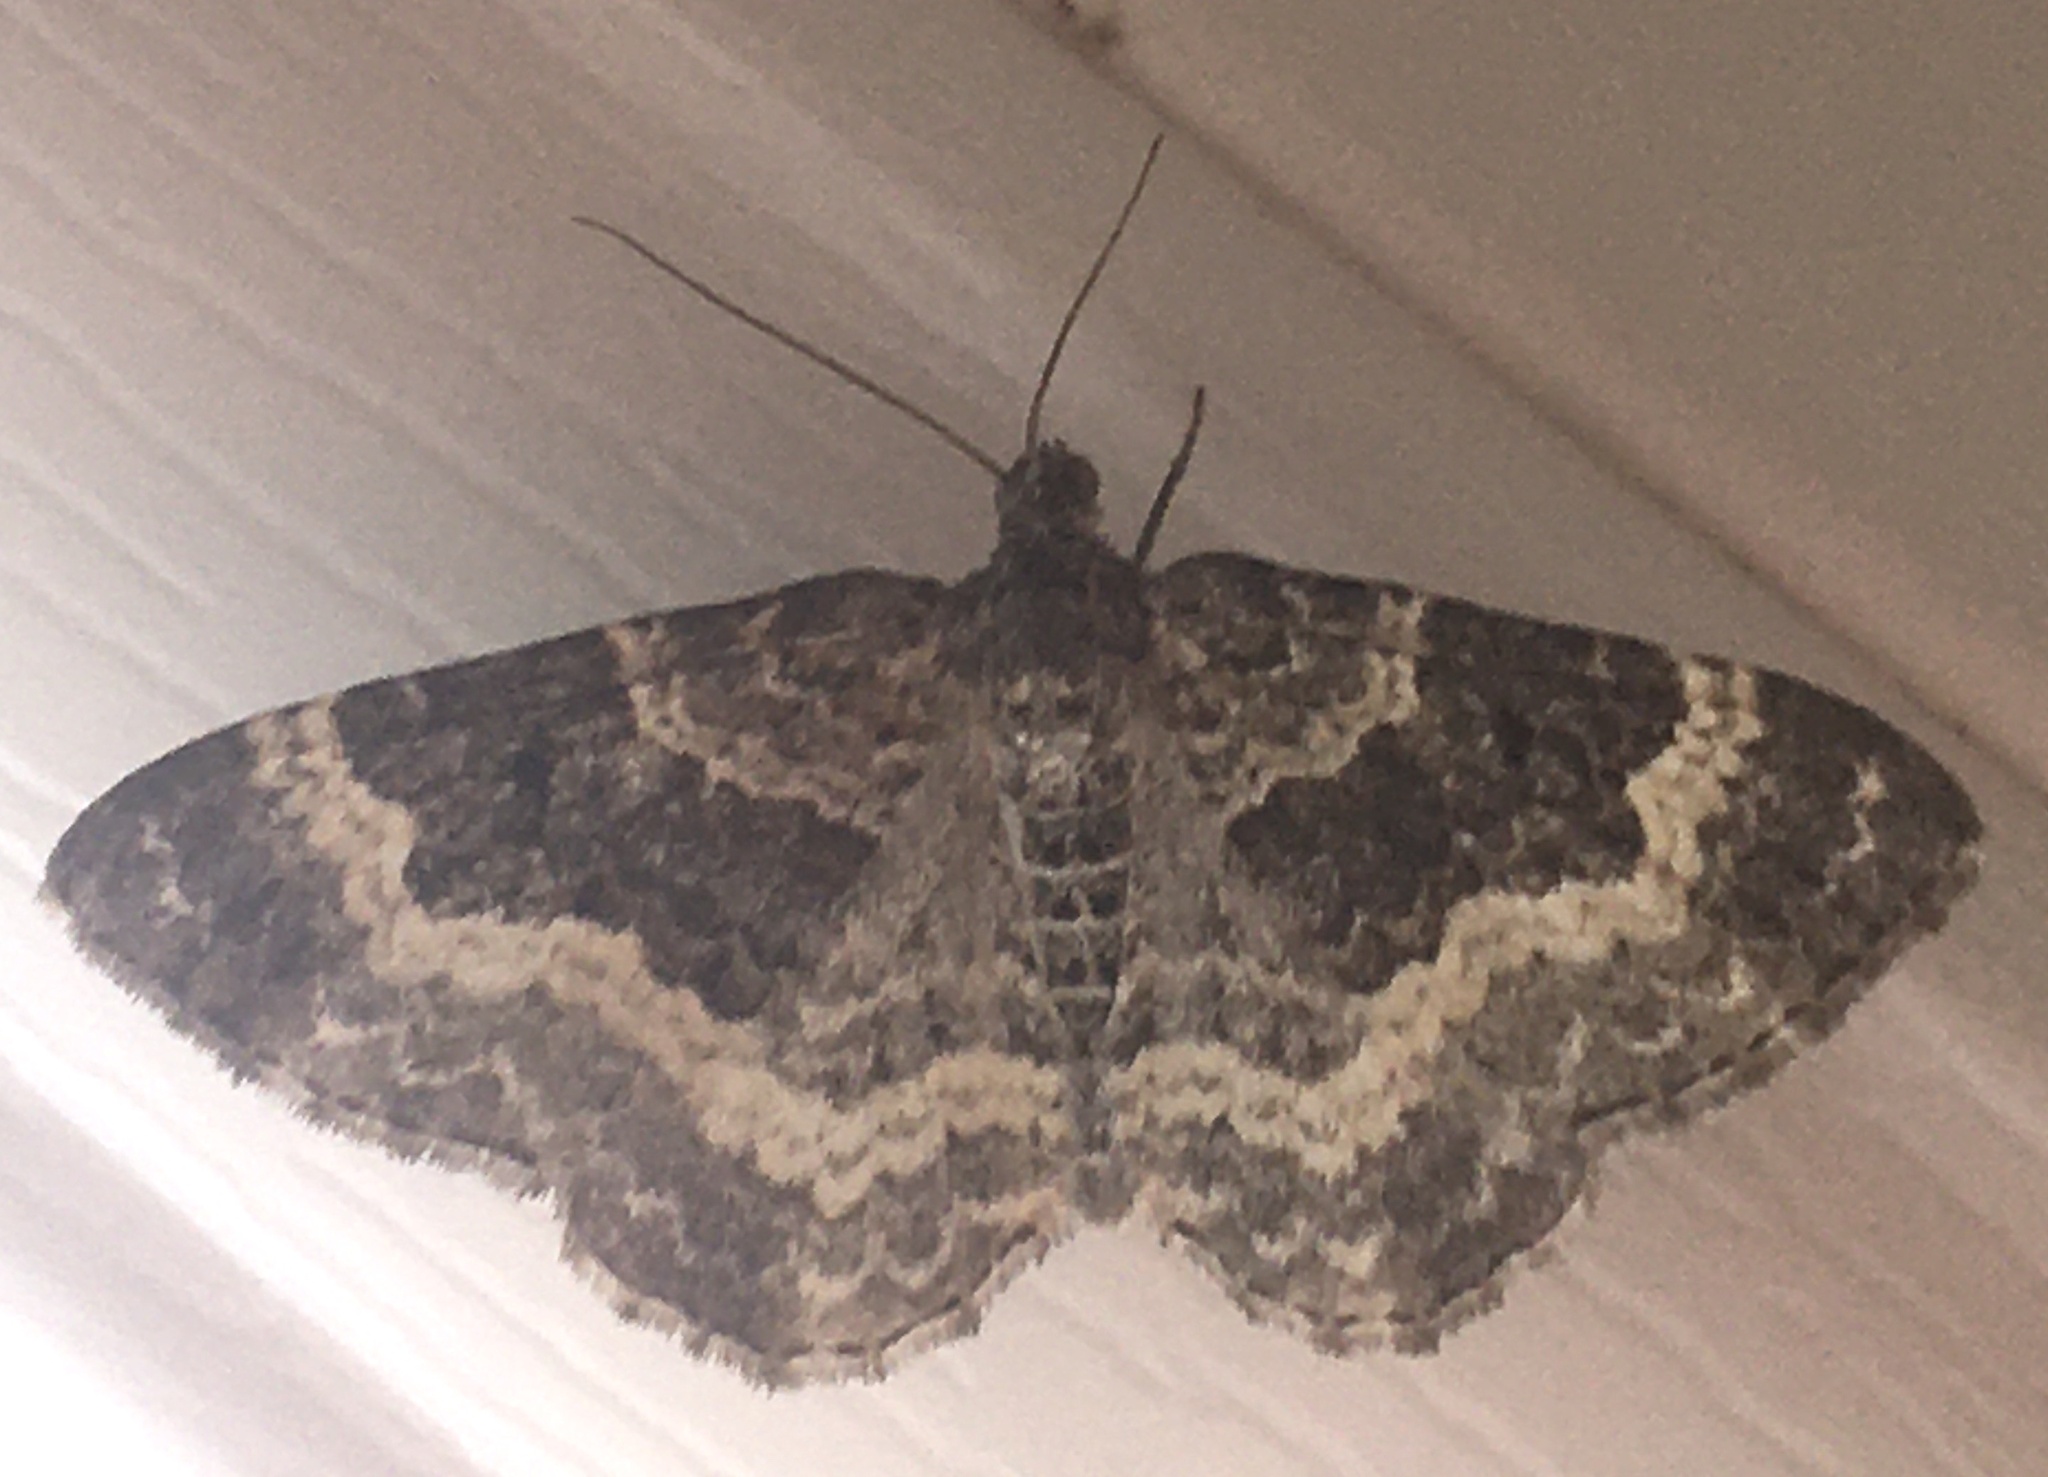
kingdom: Animalia
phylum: Arthropoda
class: Insecta
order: Lepidoptera
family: Geometridae
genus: Epirrhoe
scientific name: Epirrhoe alternata
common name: Common carpet
